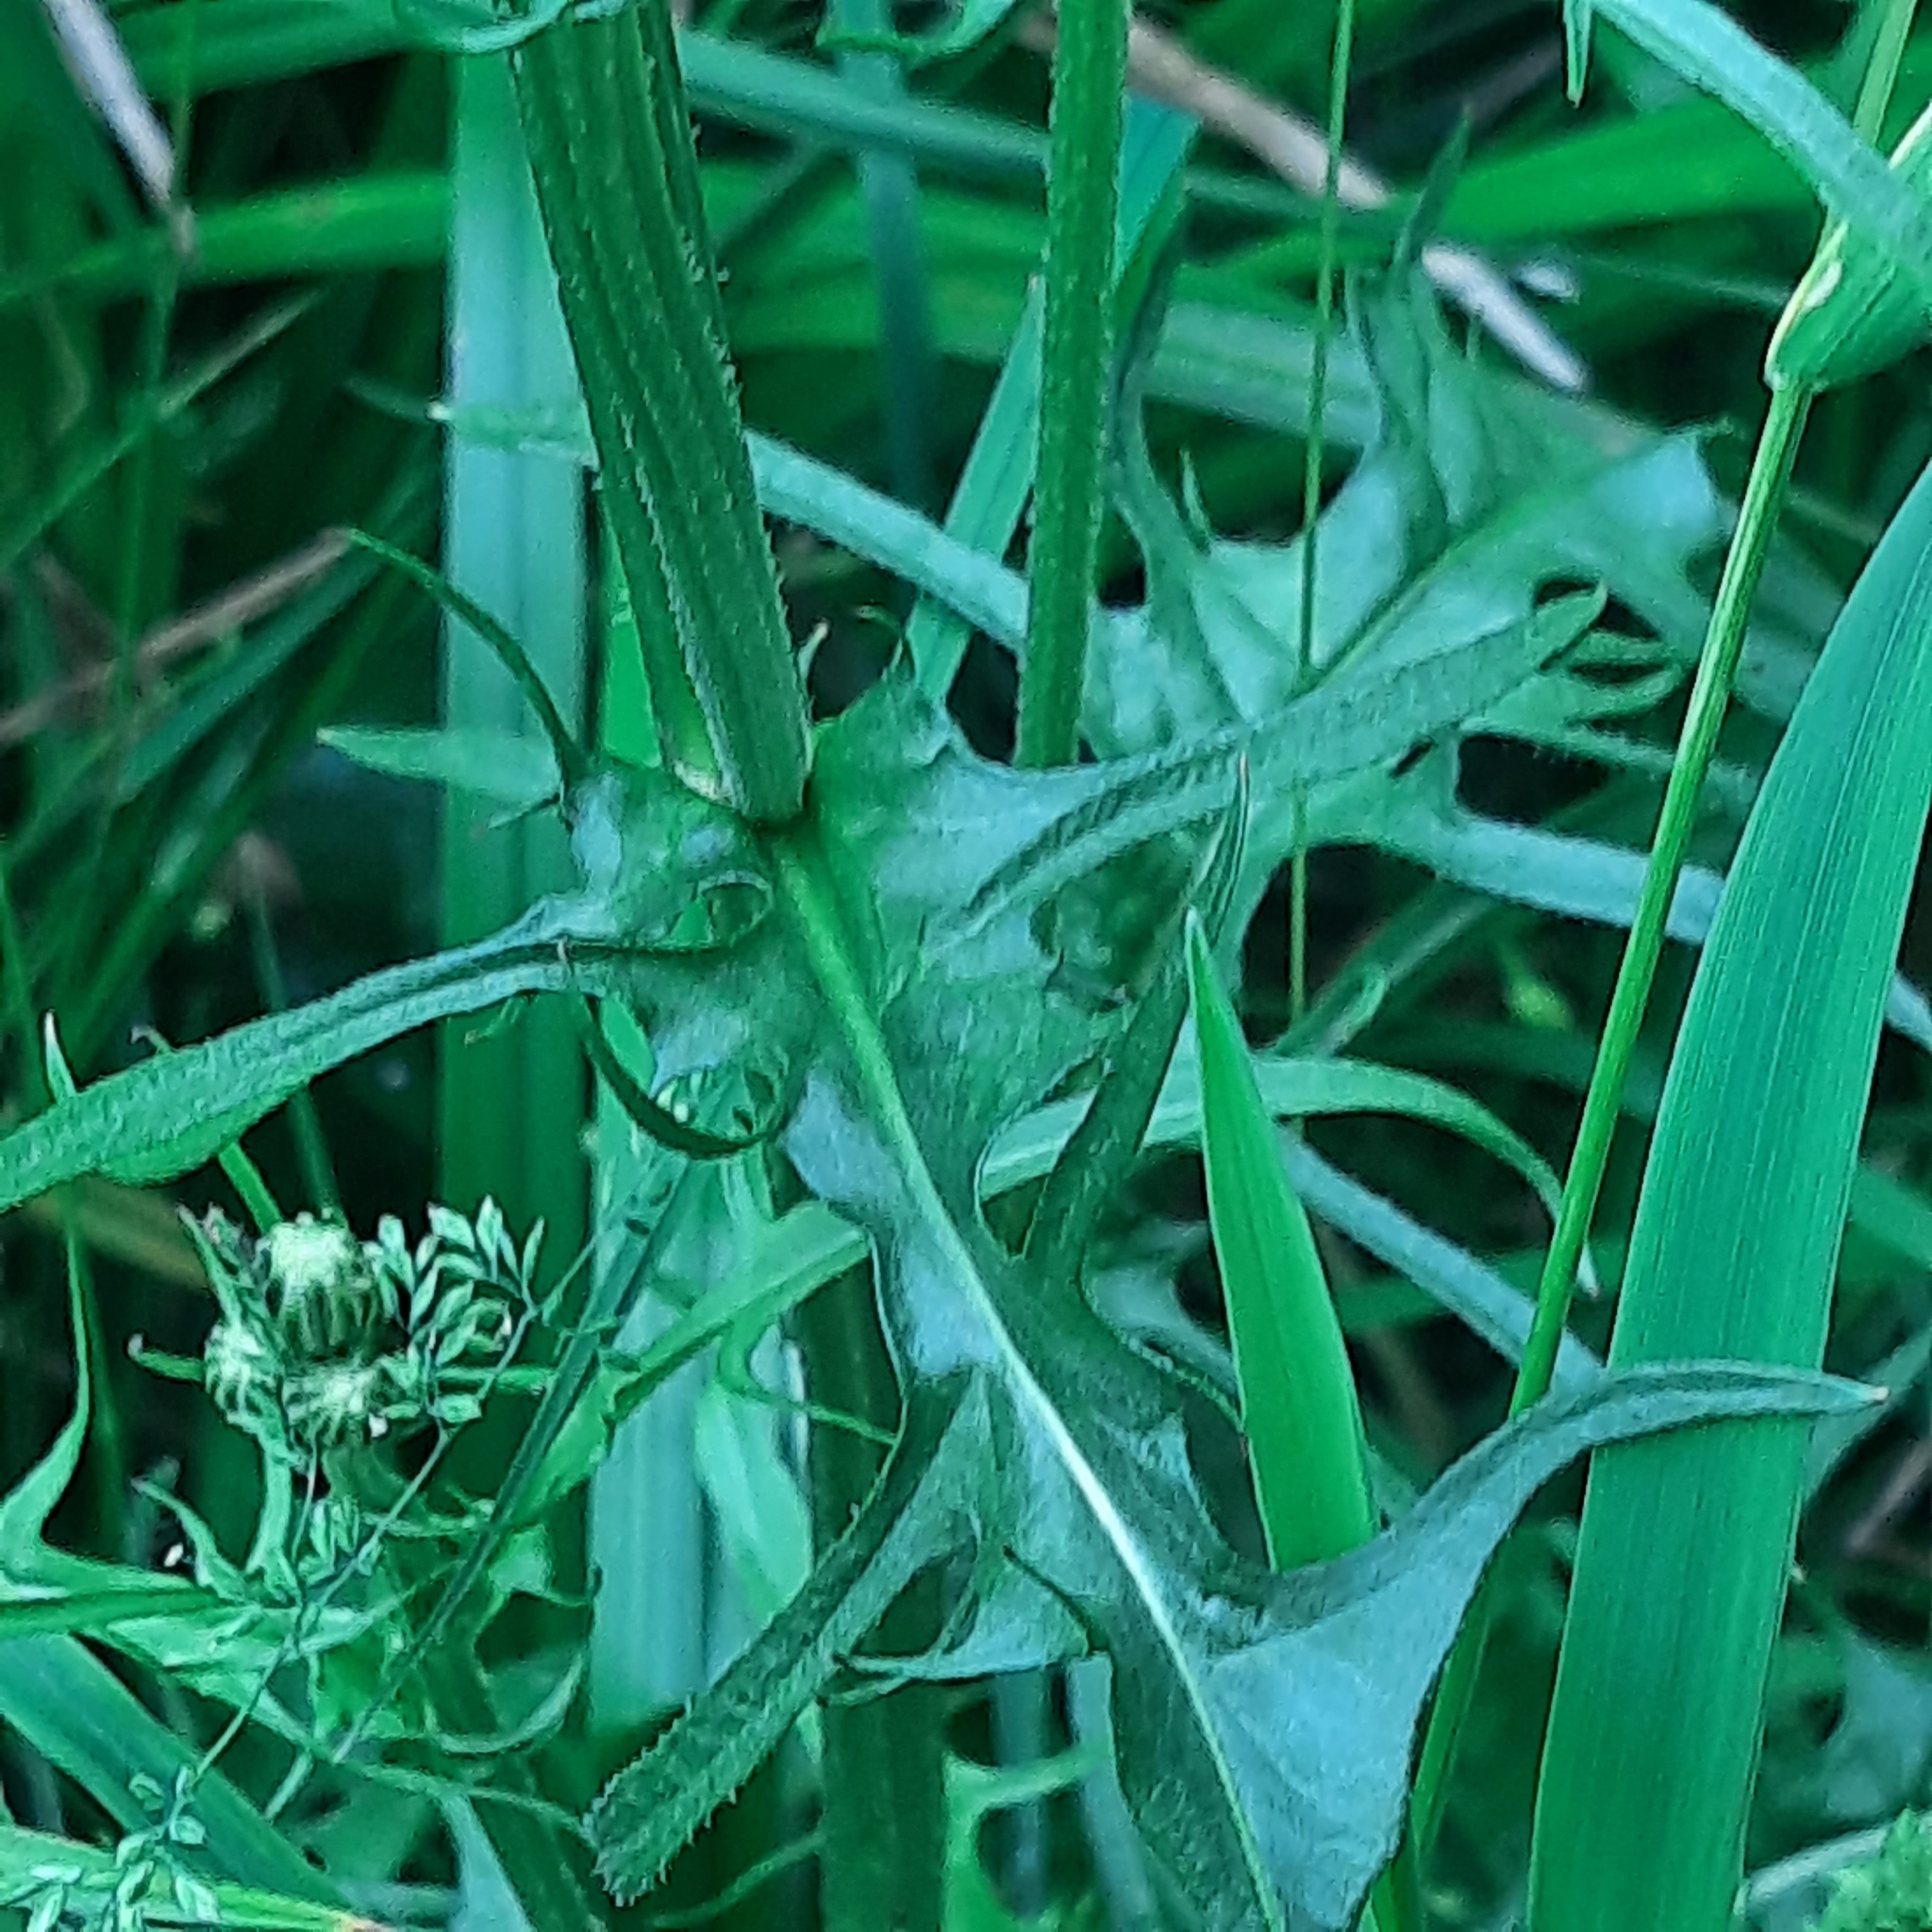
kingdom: Plantae
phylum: Tracheophyta
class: Magnoliopsida
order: Asterales
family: Asteraceae
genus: Crepis
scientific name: Crepis biennis
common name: Rough hawk's-beard
